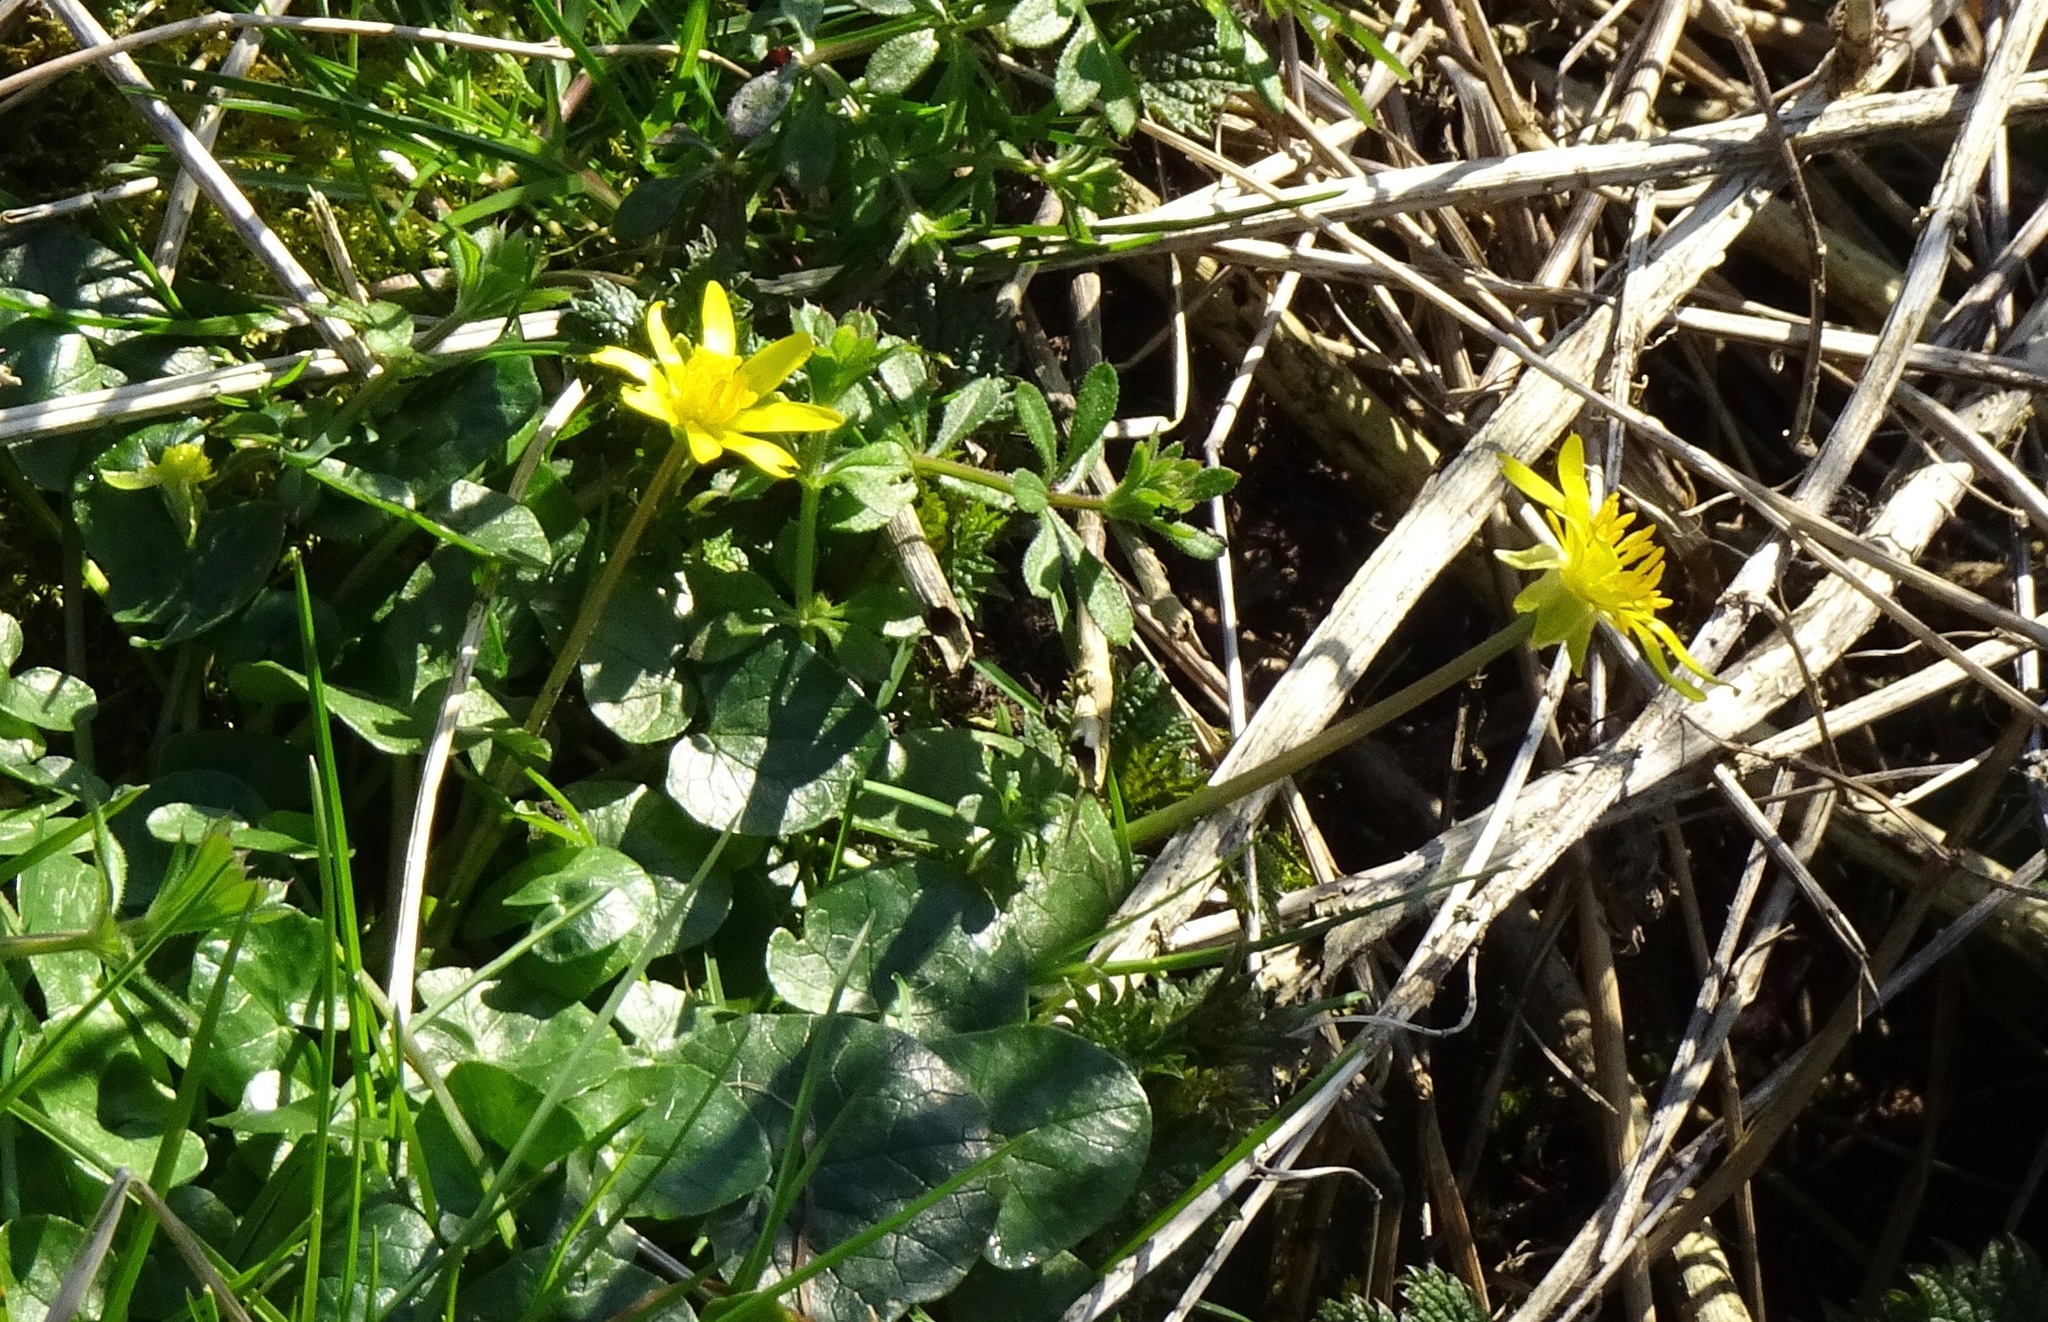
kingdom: Plantae
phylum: Tracheophyta
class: Magnoliopsida
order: Ranunculales
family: Ranunculaceae
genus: Ficaria
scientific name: Ficaria verna
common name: Lesser celandine
